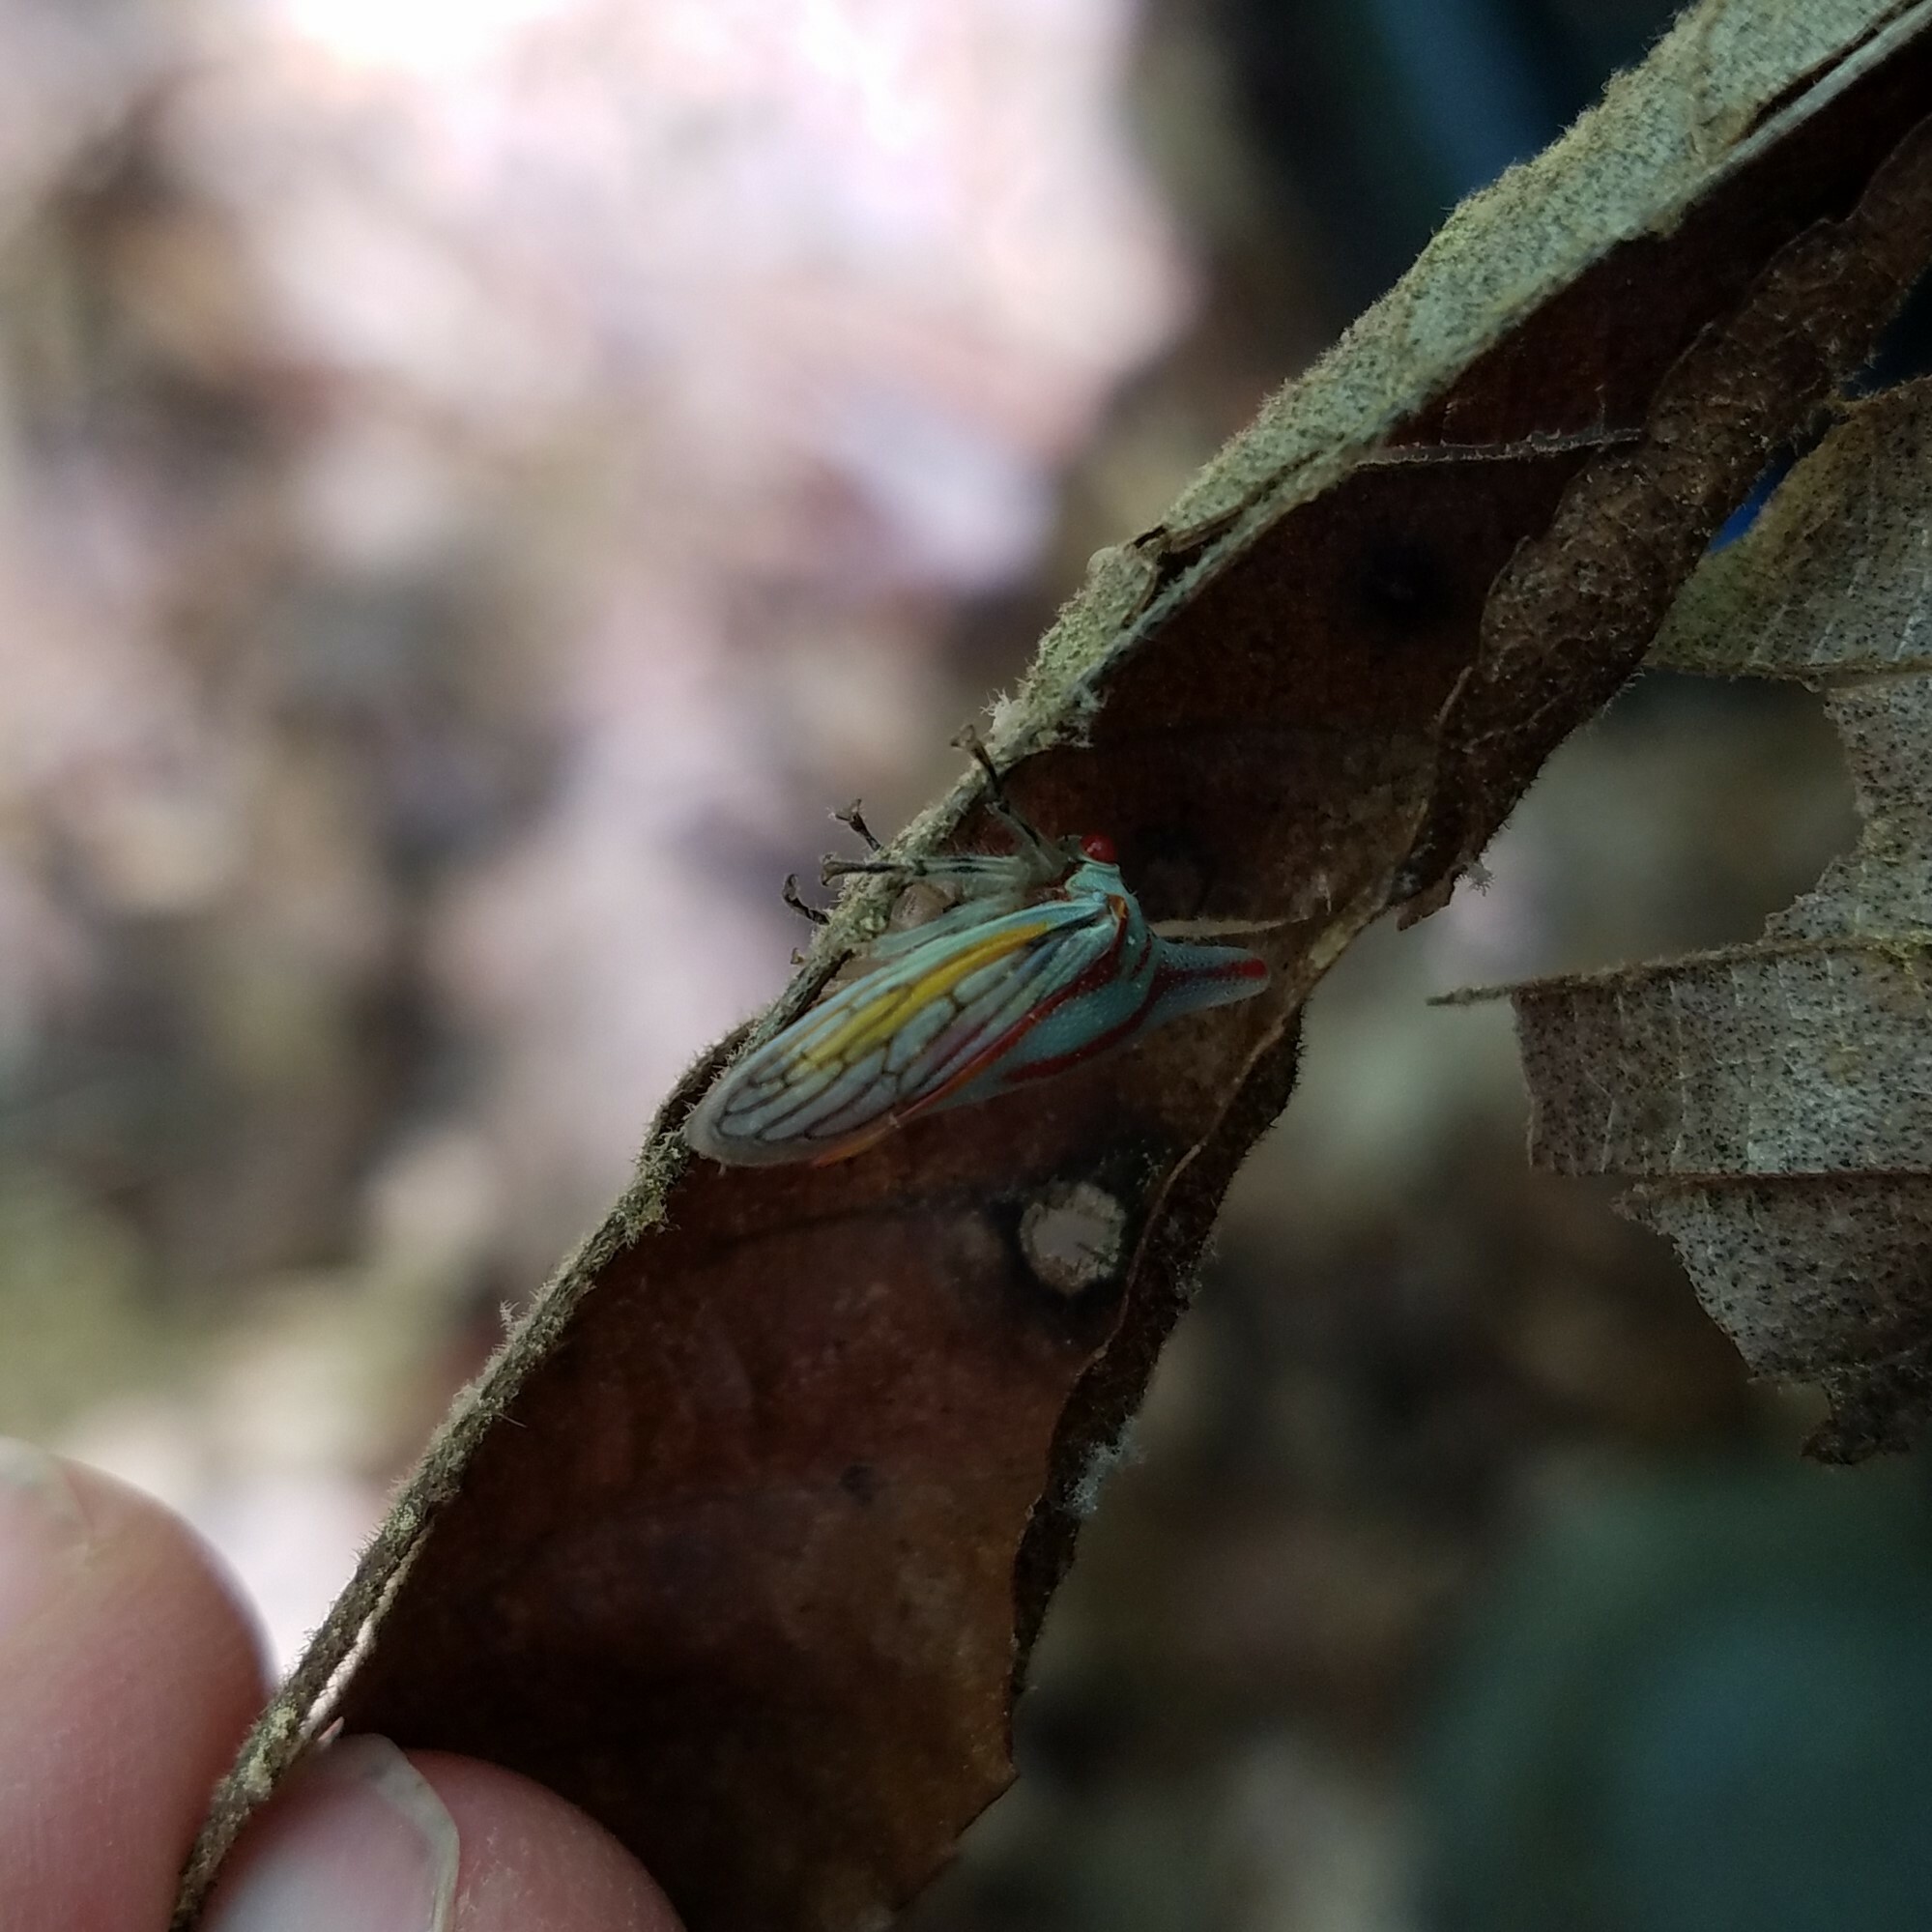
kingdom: Animalia
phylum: Arthropoda
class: Insecta
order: Hemiptera
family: Membracidae
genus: Platycotis
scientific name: Platycotis vittatus
